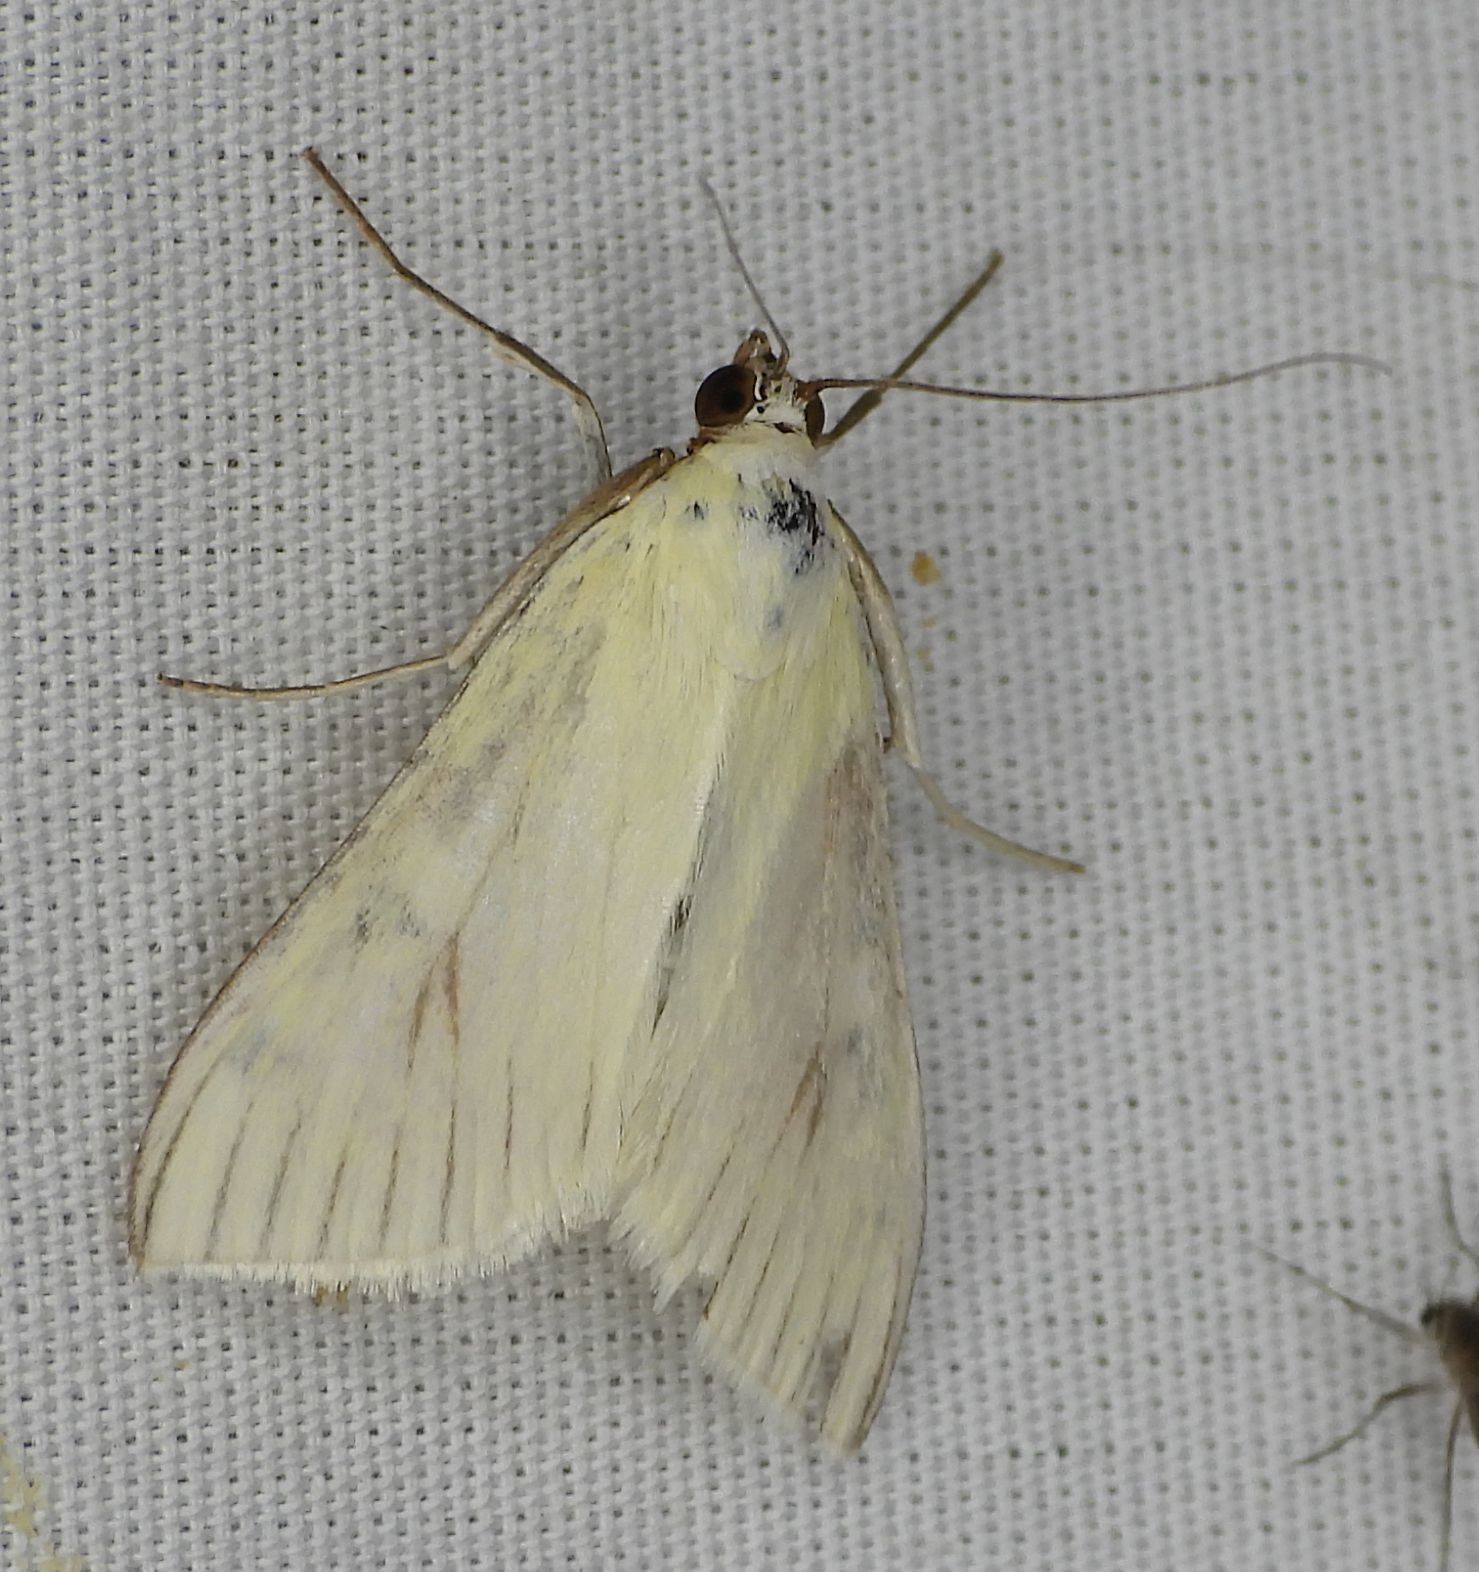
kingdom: Animalia
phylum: Arthropoda
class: Insecta
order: Lepidoptera
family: Crambidae
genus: Sitochroa
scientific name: Sitochroa palealis
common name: Greenish-yellow sitochroa moth
